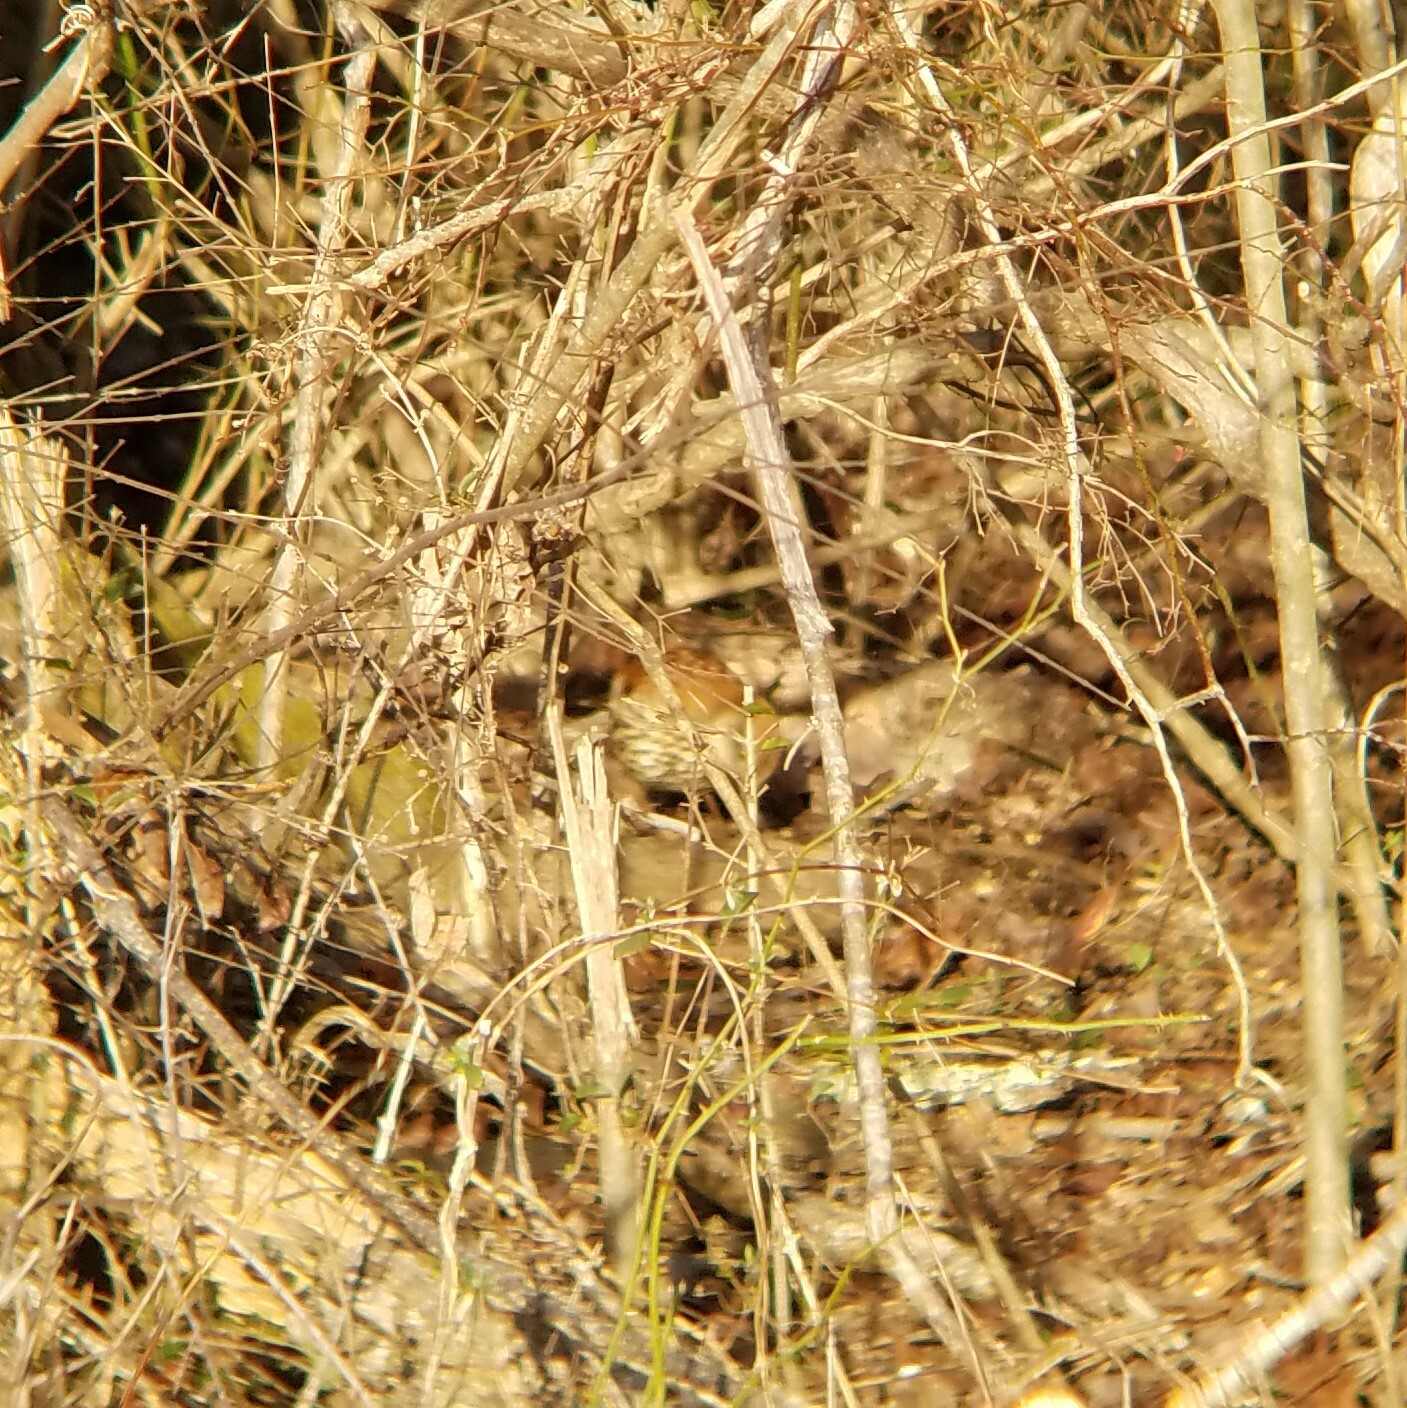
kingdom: Animalia
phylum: Chordata
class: Aves
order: Passeriformes
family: Mimidae
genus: Toxostoma
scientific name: Toxostoma rufum
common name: Brown thrasher
